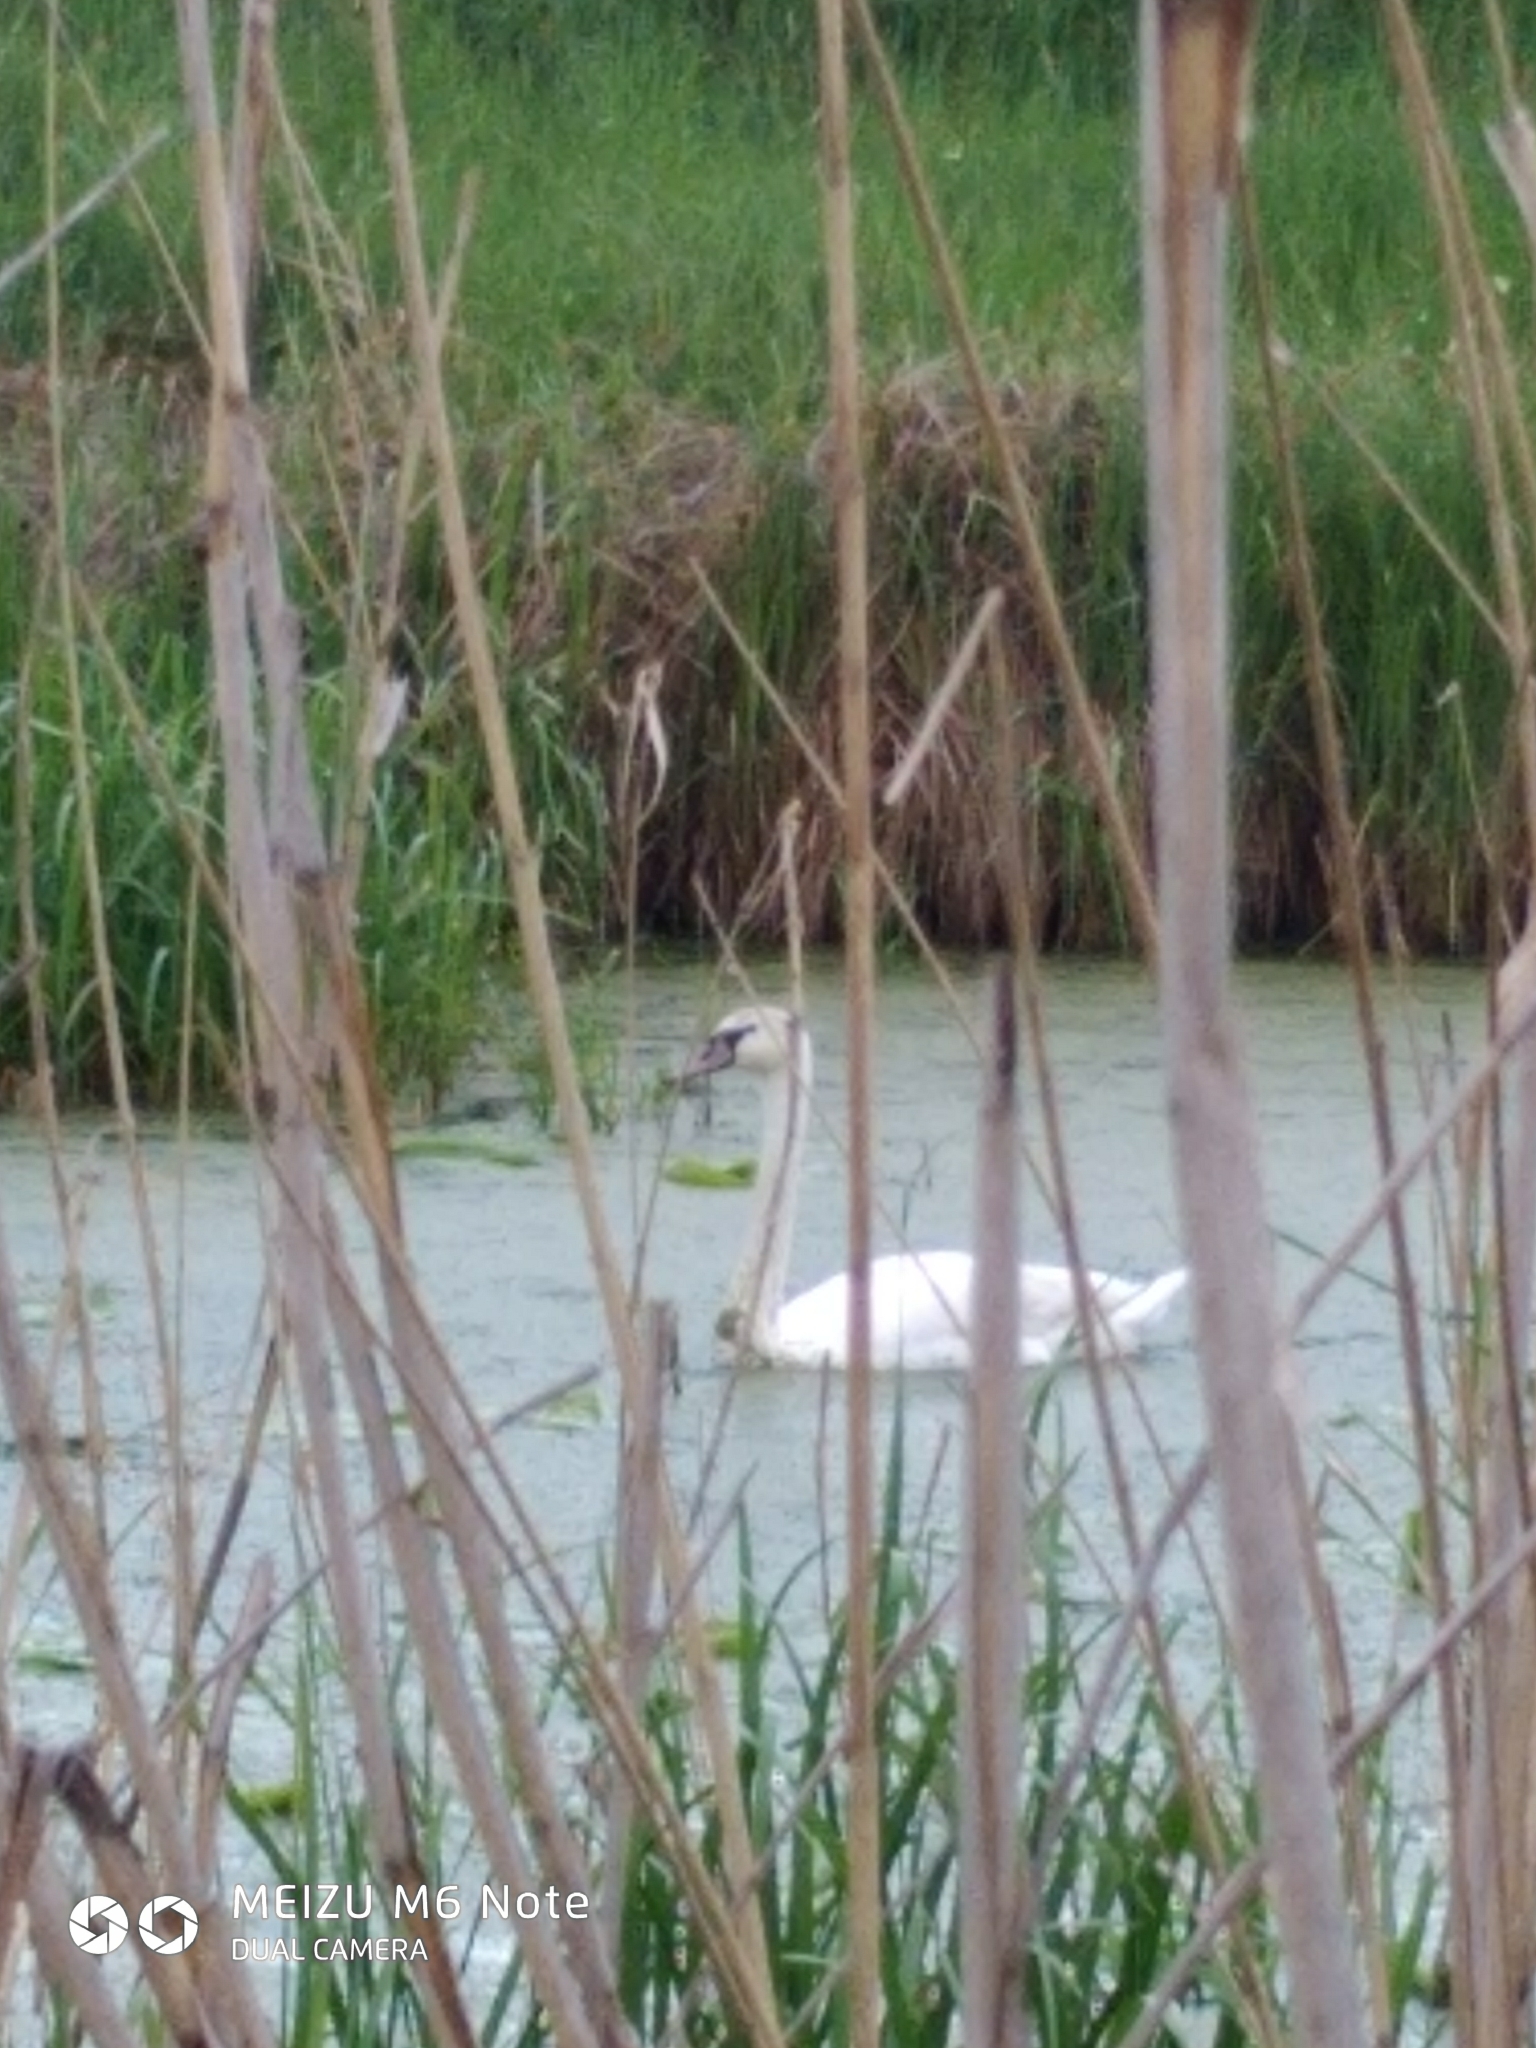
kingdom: Animalia
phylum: Chordata
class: Aves
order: Anseriformes
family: Anatidae
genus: Cygnus
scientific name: Cygnus olor
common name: Mute swan
